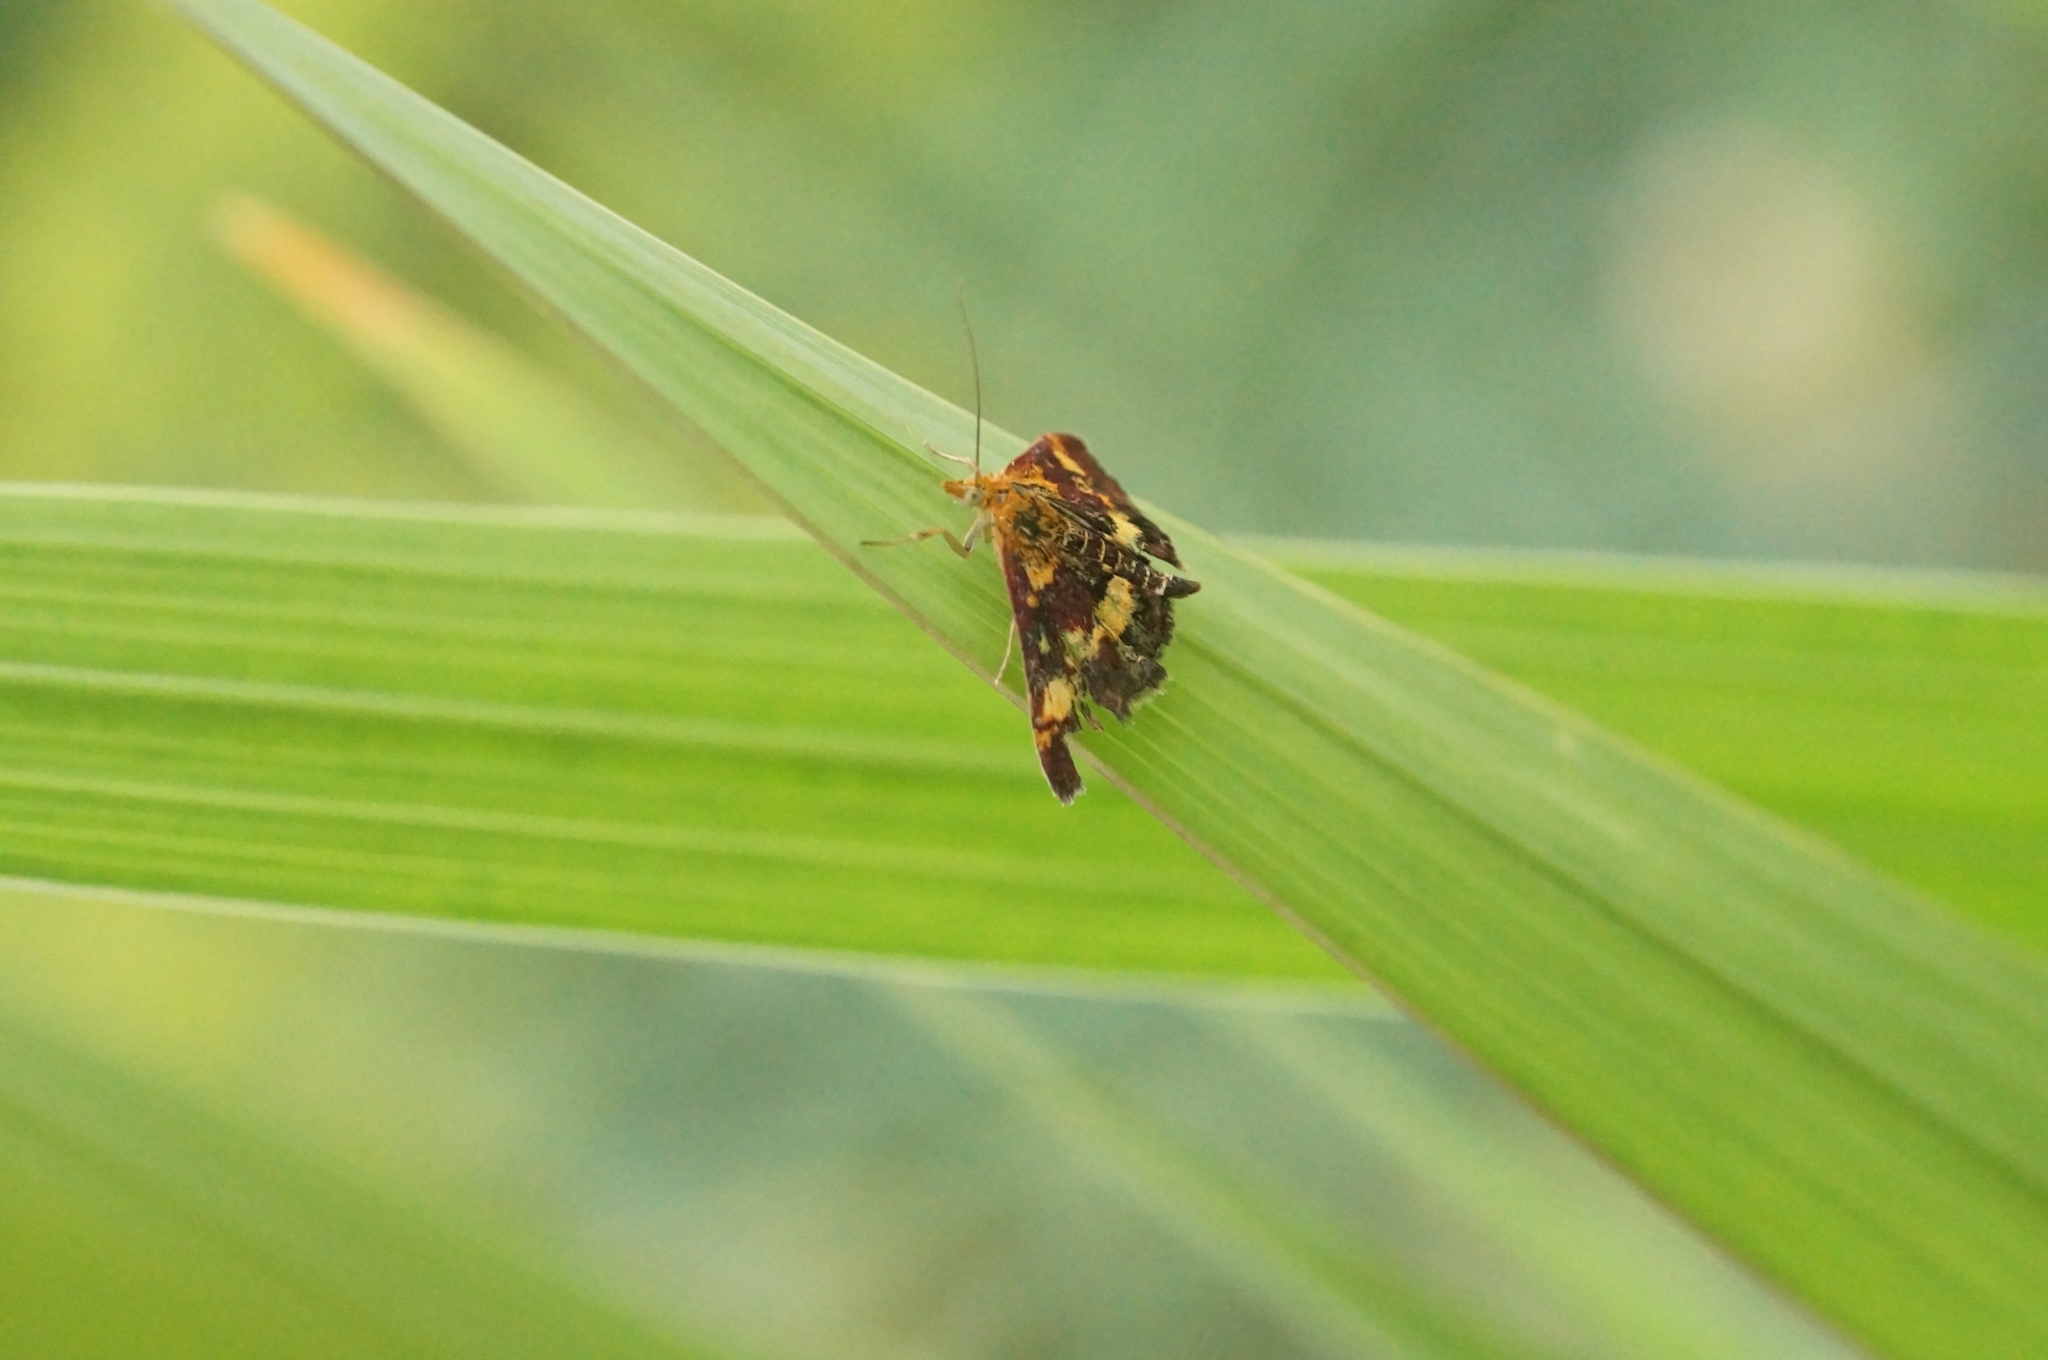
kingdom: Animalia
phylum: Arthropoda
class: Insecta
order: Lepidoptera
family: Crambidae
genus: Pyrausta
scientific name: Pyrausta aurata
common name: Small purple & gold
